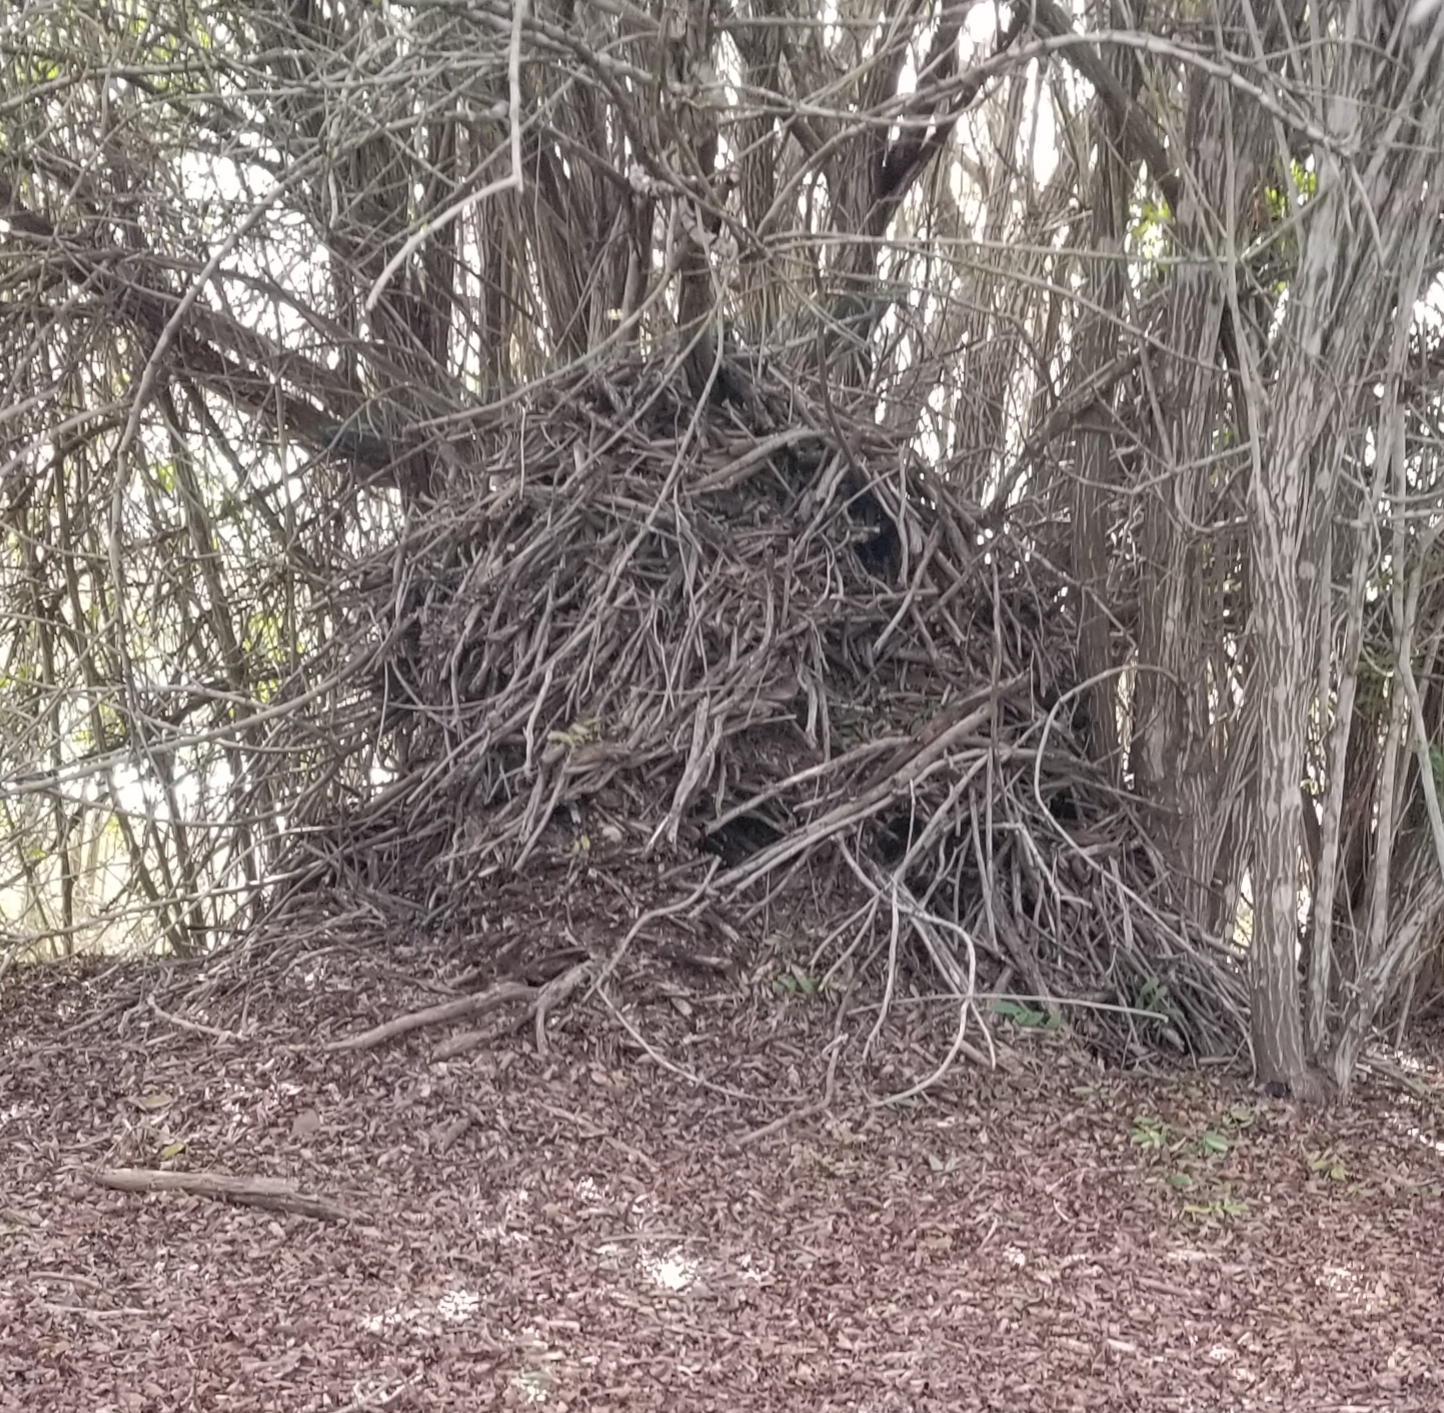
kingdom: Animalia
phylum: Chordata
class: Mammalia
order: Rodentia
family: Cricetidae
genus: Neotoma
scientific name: Neotoma macrotis
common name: Big-eared woodrat
